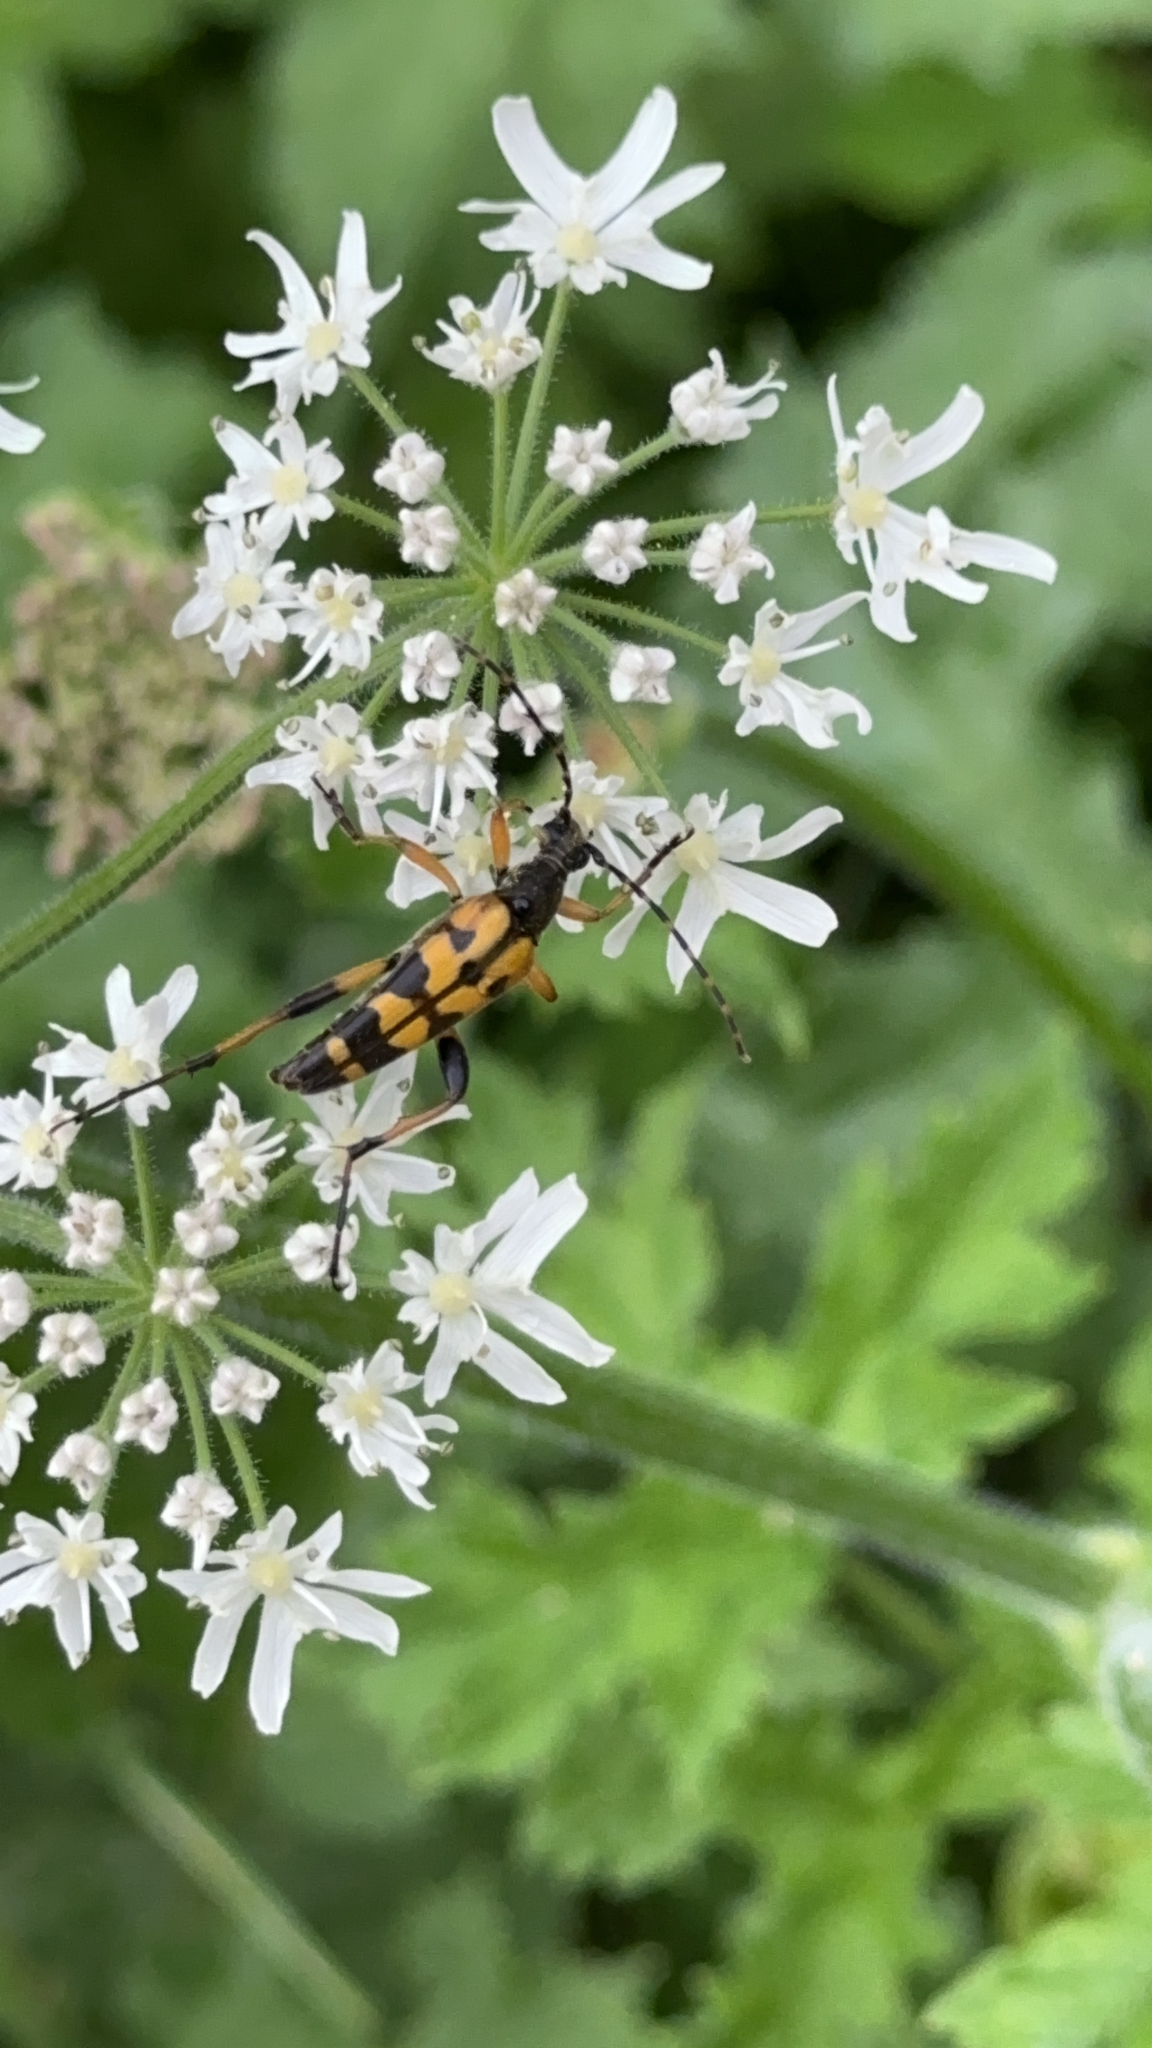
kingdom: Animalia
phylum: Arthropoda
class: Insecta
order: Coleoptera
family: Cerambycidae
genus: Rutpela
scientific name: Rutpela maculata
